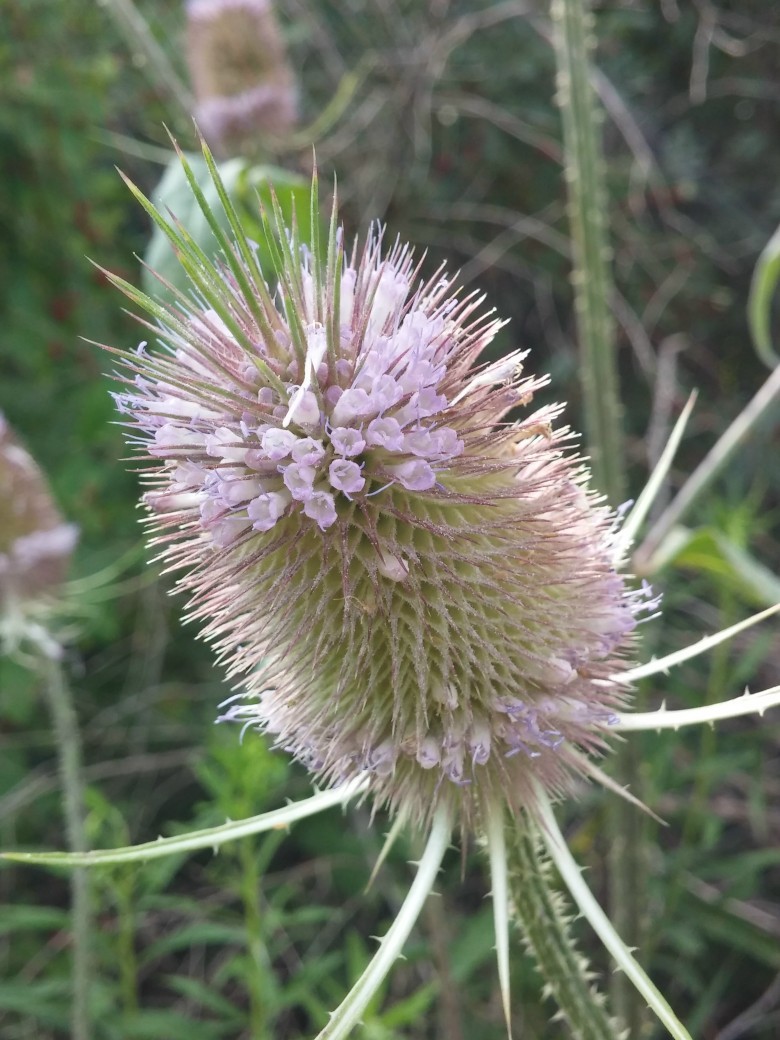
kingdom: Plantae
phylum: Tracheophyta
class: Magnoliopsida
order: Dipsacales
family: Caprifoliaceae
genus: Dipsacus
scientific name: Dipsacus fullonum
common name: Teasel
